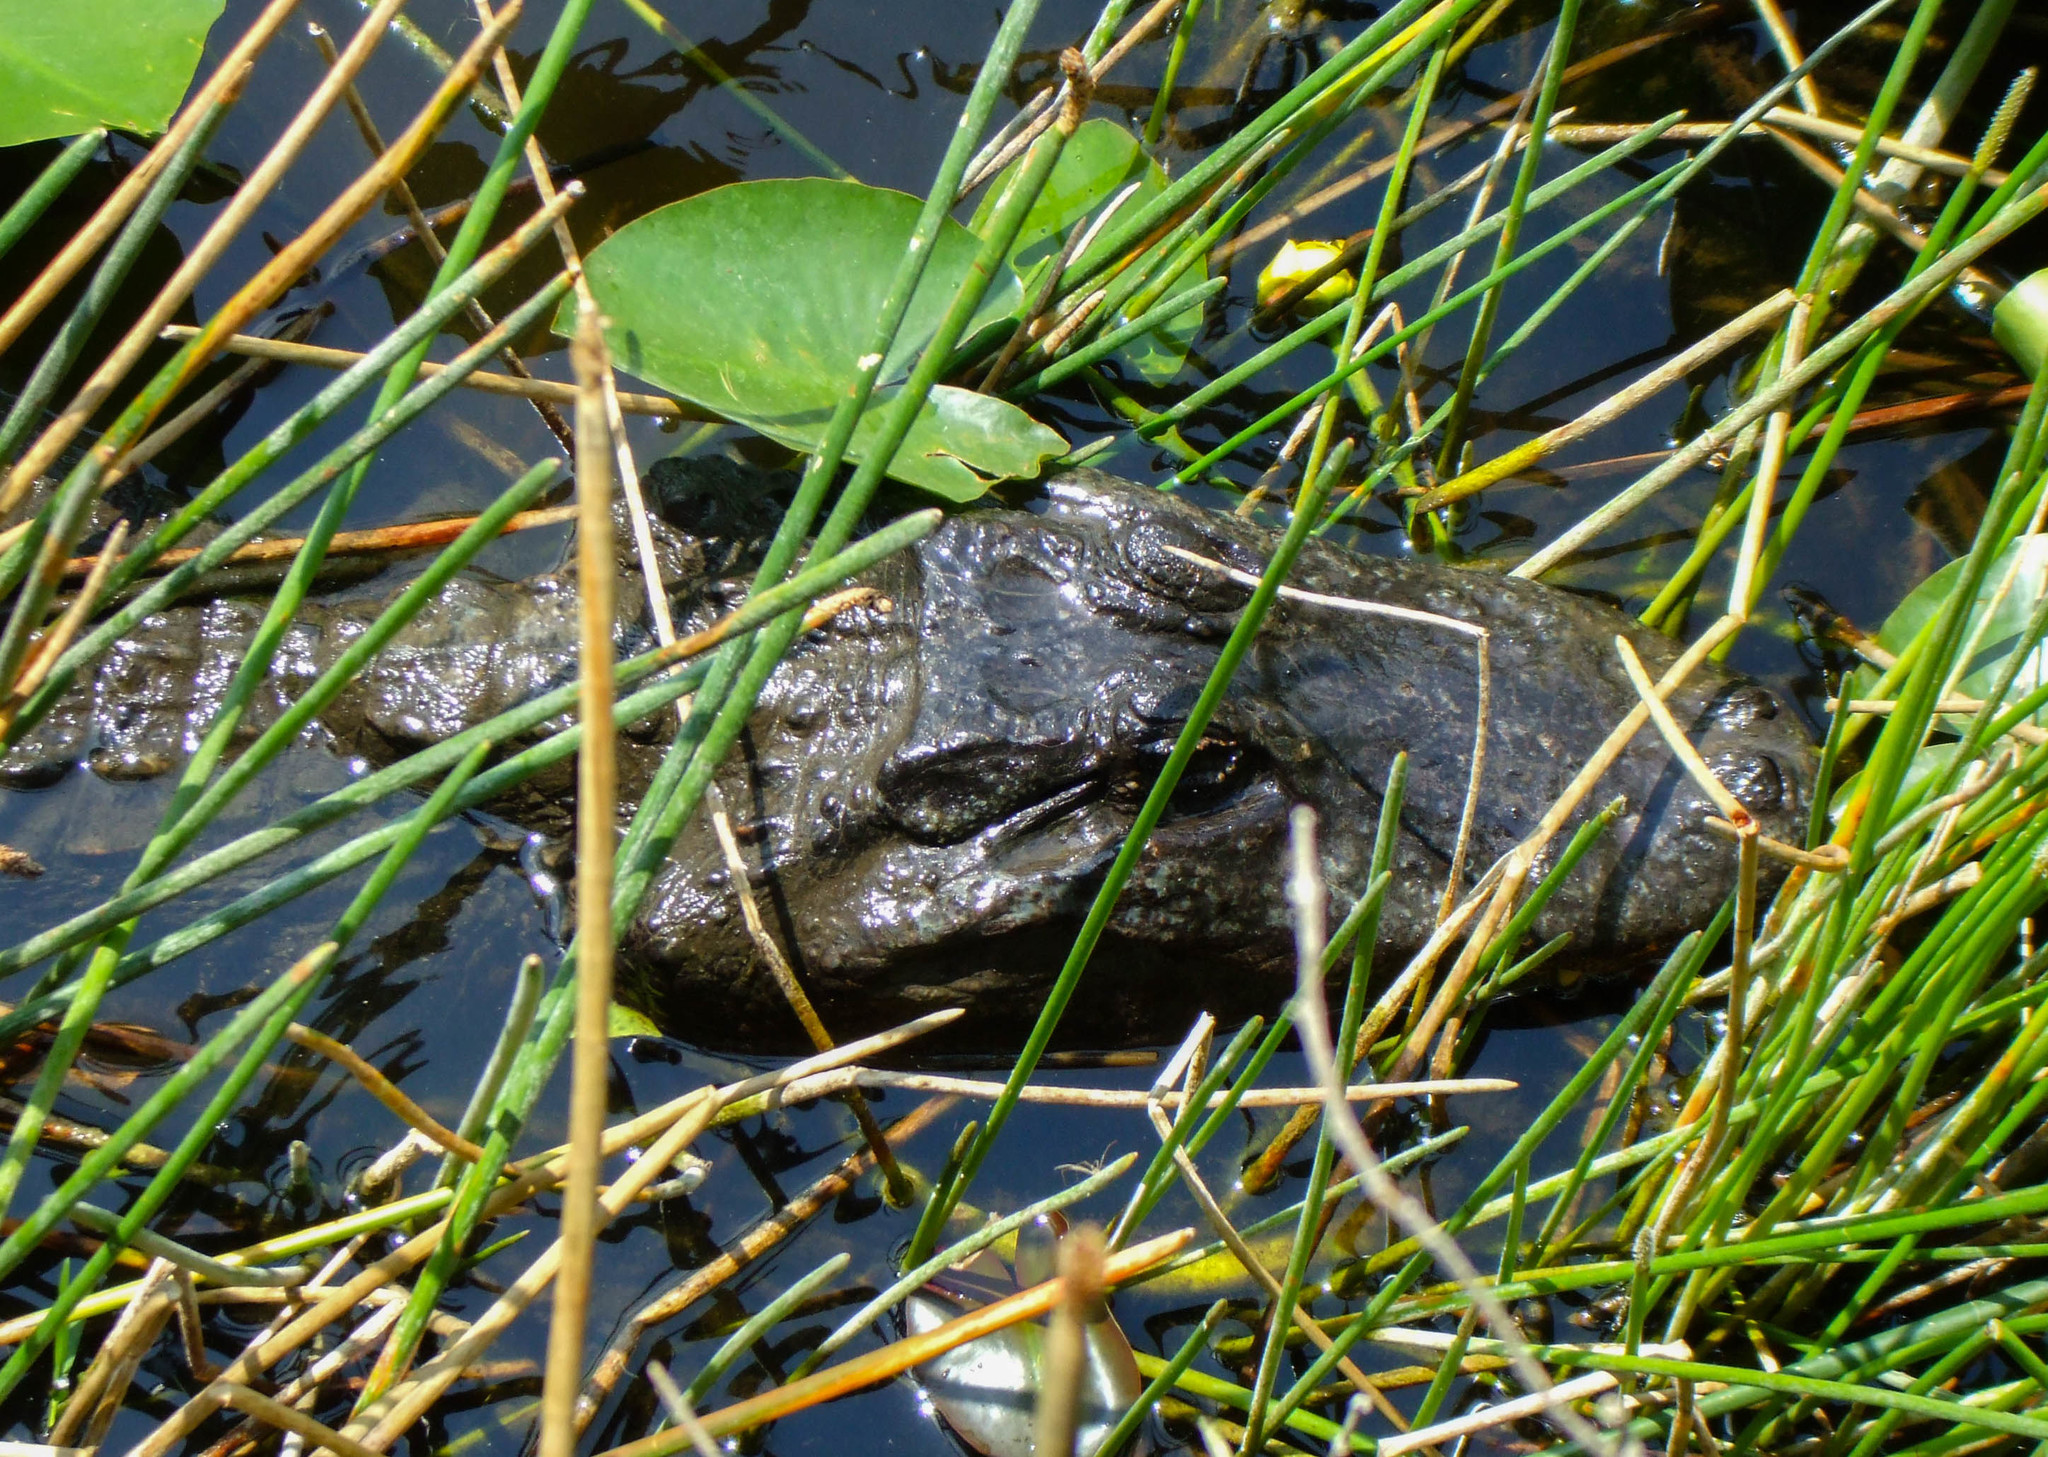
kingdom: Animalia
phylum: Chordata
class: Crocodylia
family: Alligatoridae
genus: Alligator
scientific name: Alligator mississippiensis
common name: American alligator
